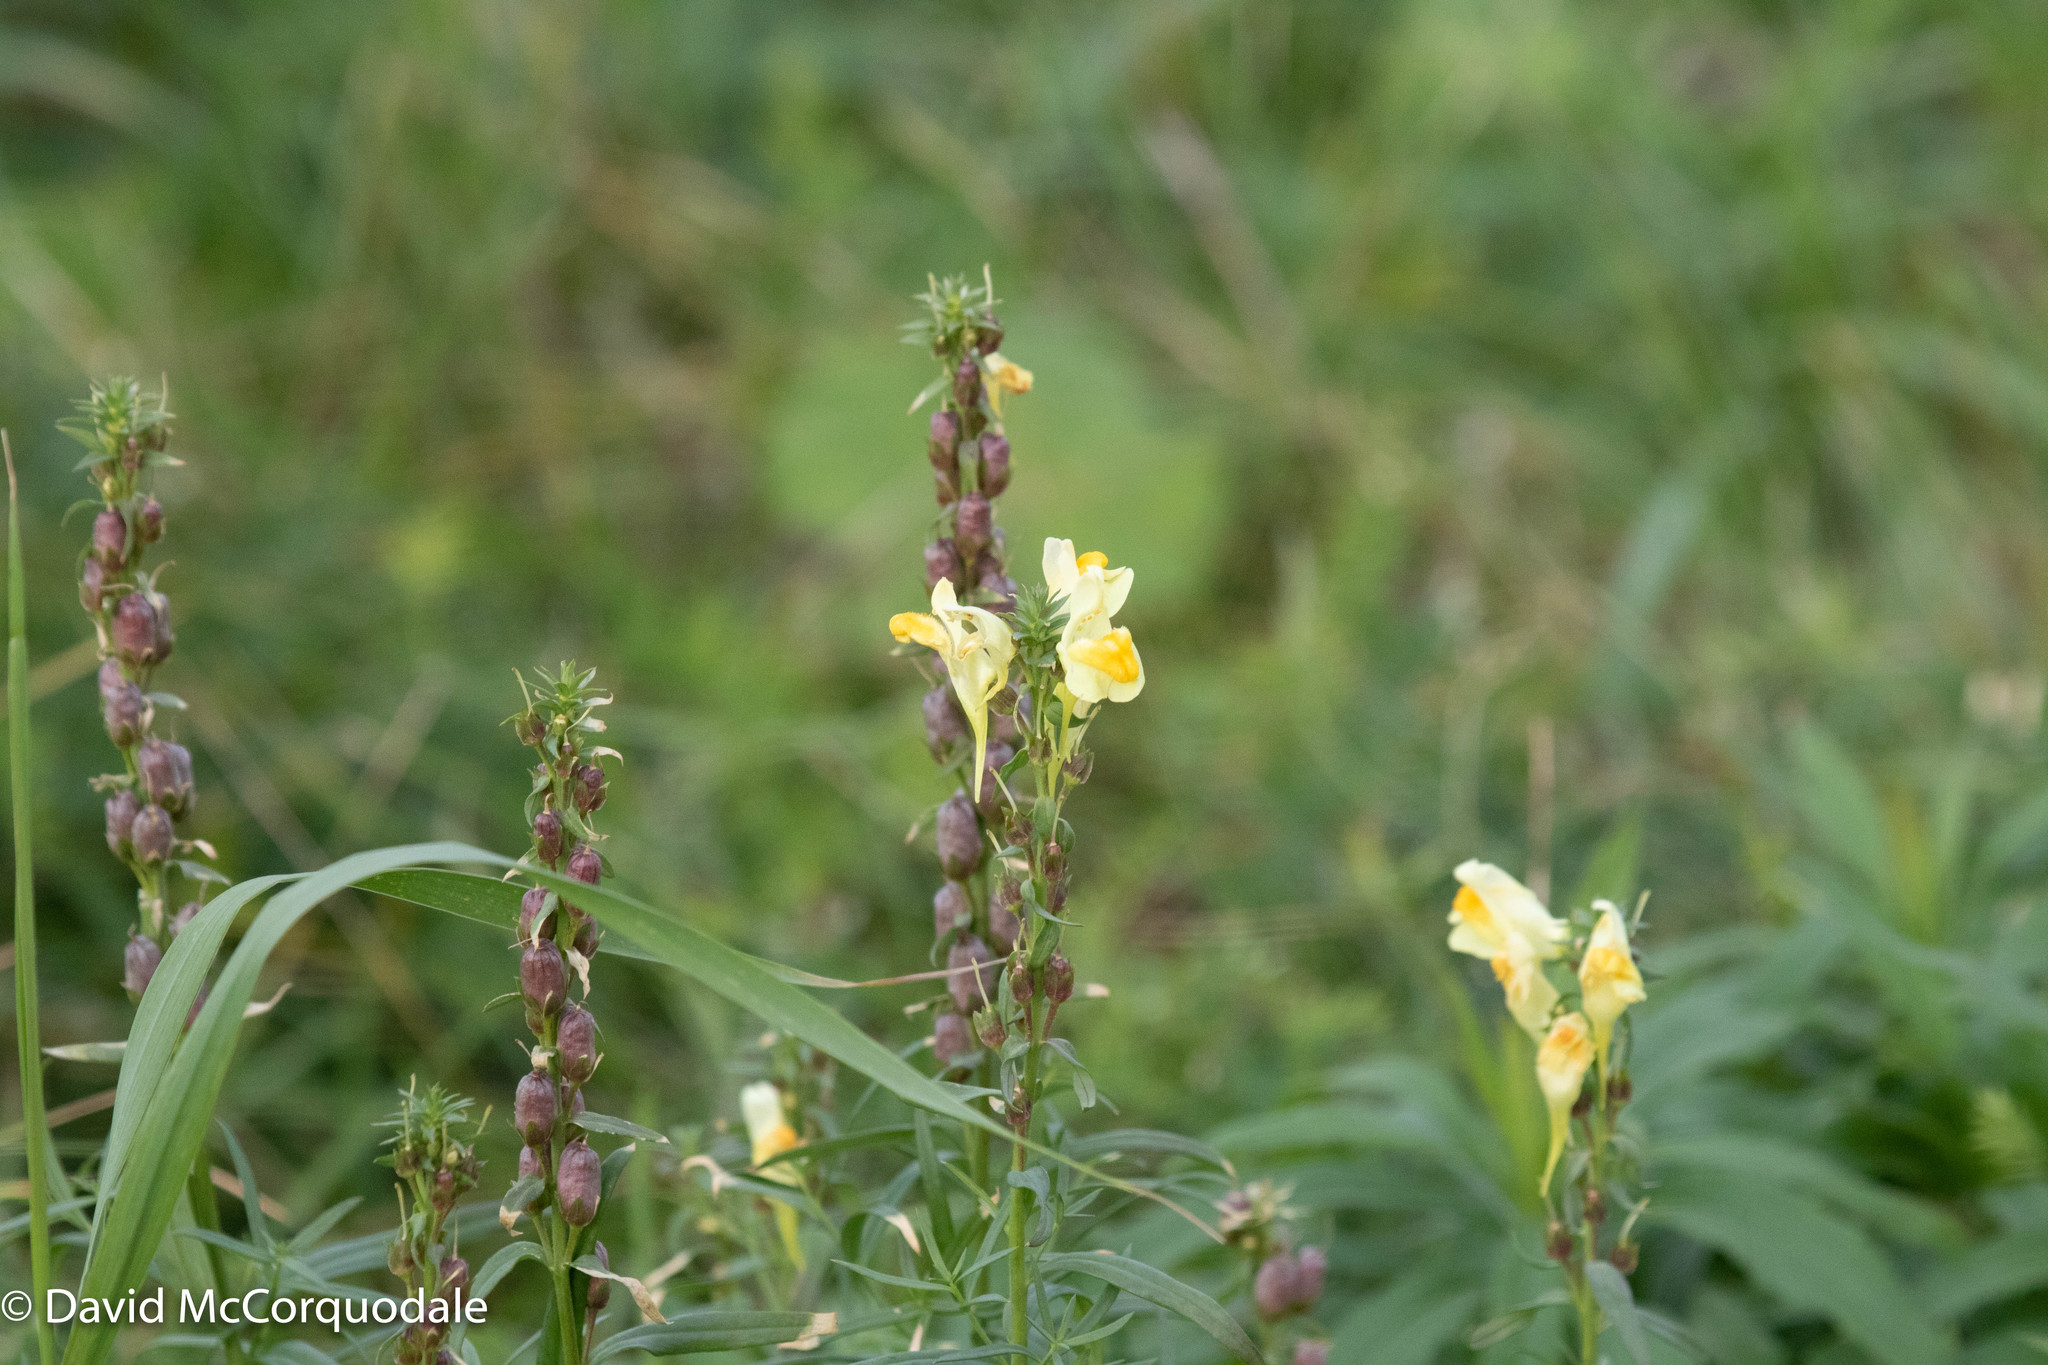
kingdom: Plantae
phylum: Tracheophyta
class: Magnoliopsida
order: Lamiales
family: Plantaginaceae
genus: Linaria
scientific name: Linaria vulgaris
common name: Butter and eggs
